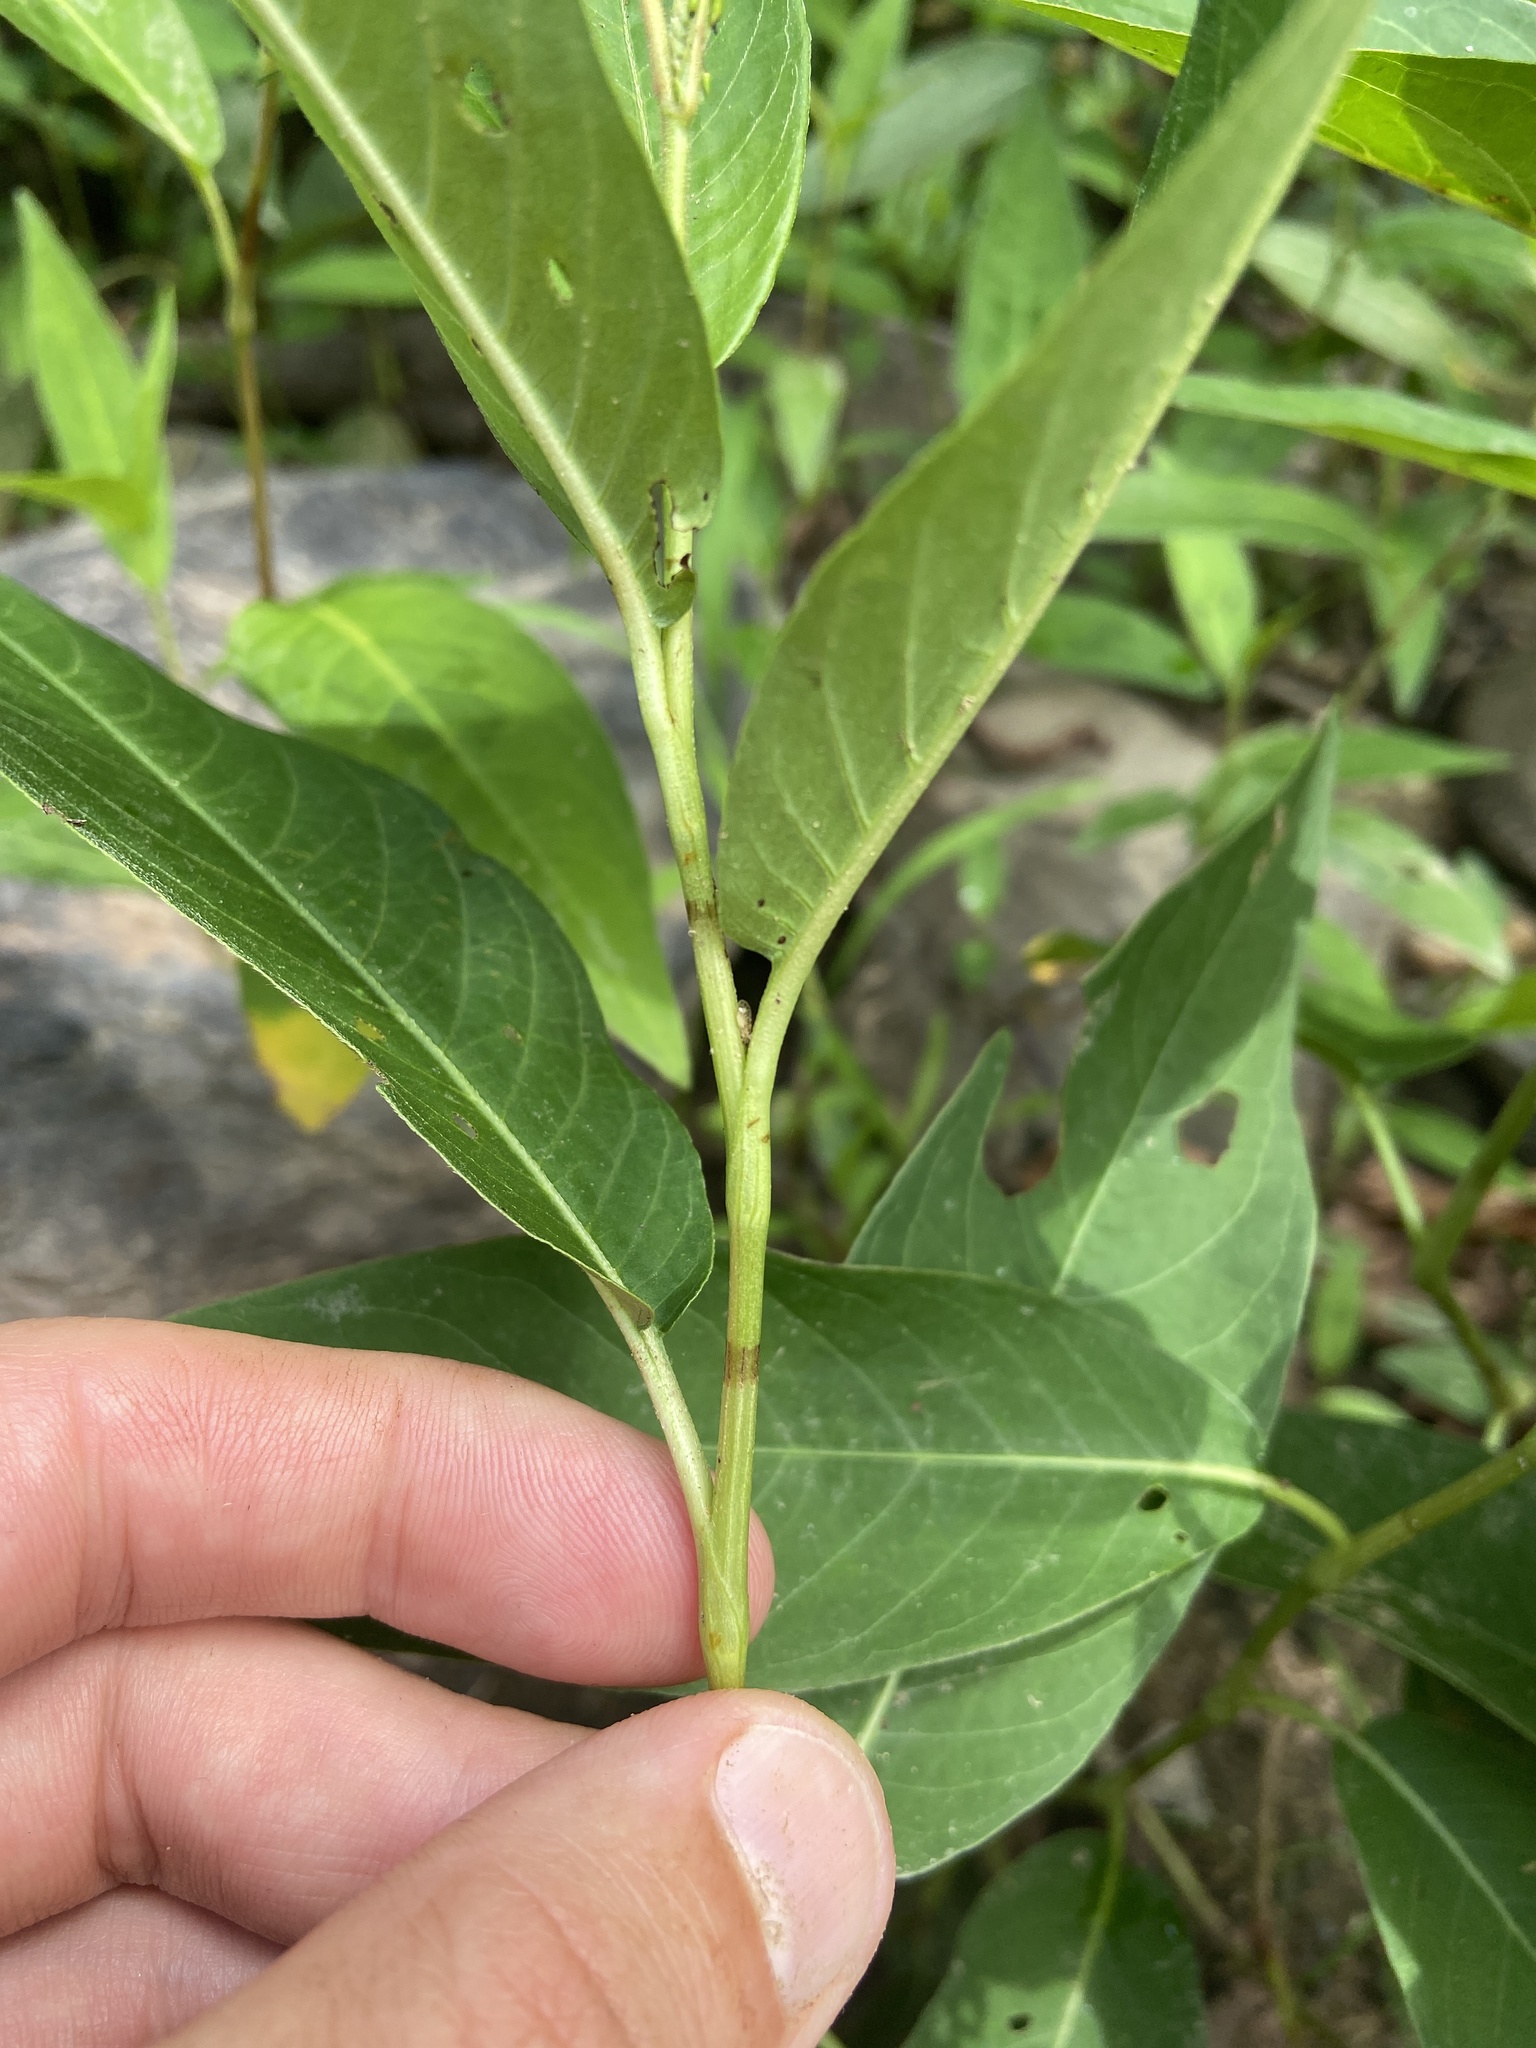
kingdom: Plantae
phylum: Tracheophyta
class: Magnoliopsida
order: Caryophyllales
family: Polygonaceae
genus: Persicaria
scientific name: Persicaria amphibia
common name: Amphibious bistort
